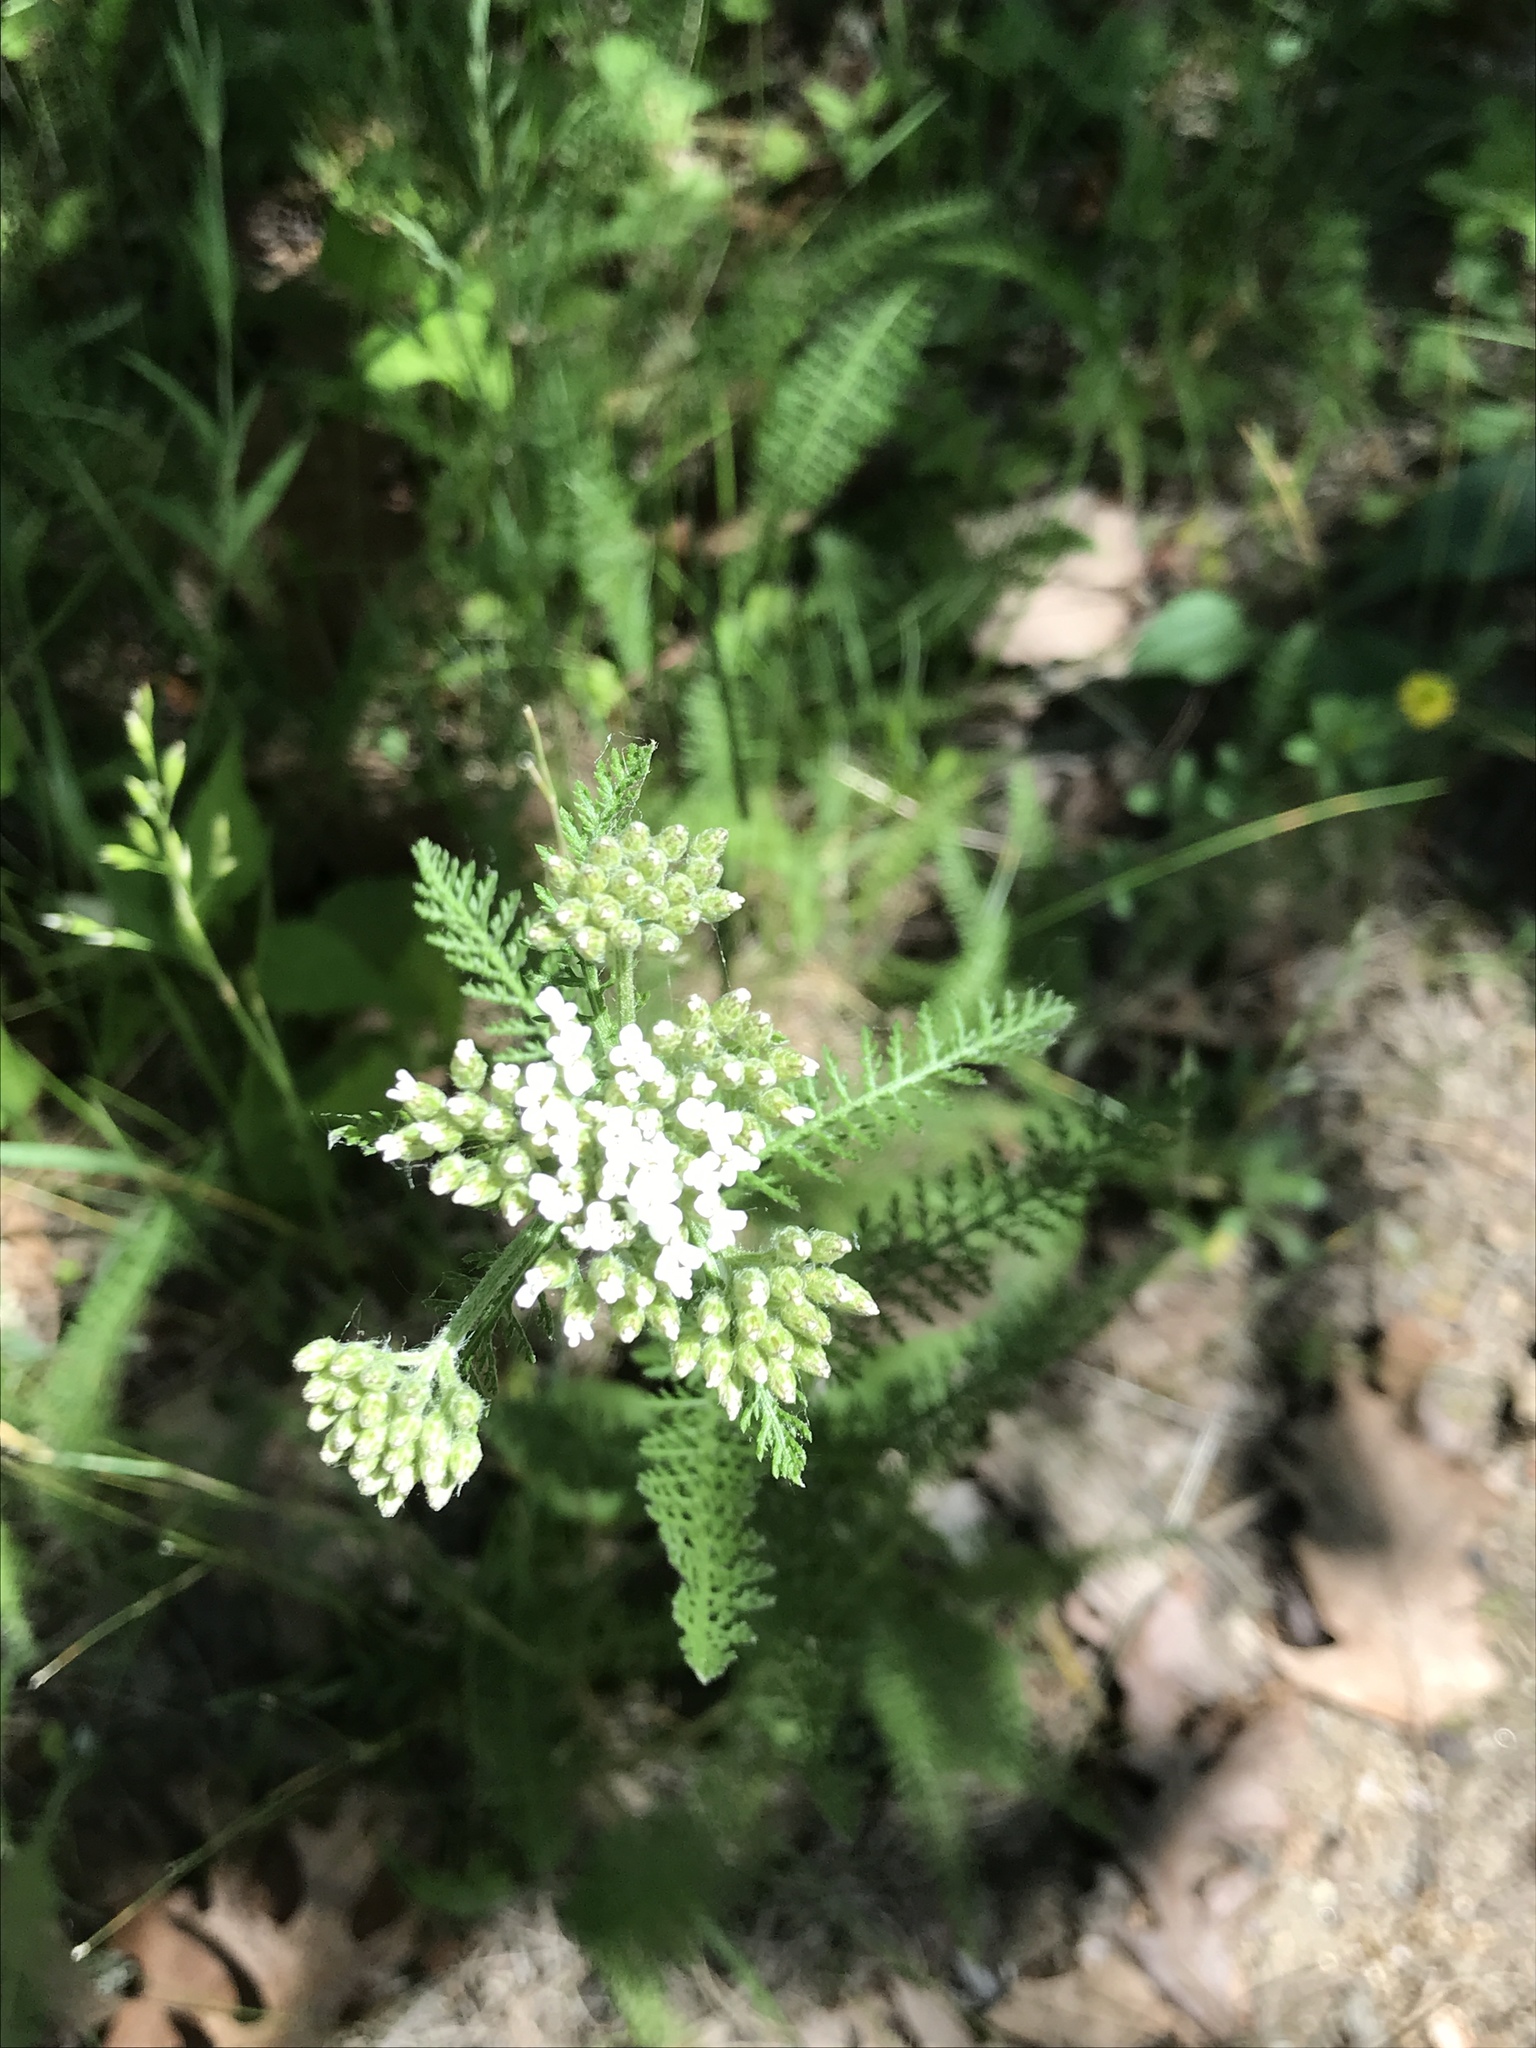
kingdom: Plantae
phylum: Tracheophyta
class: Magnoliopsida
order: Asterales
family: Asteraceae
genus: Achillea
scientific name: Achillea millefolium
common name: Yarrow
